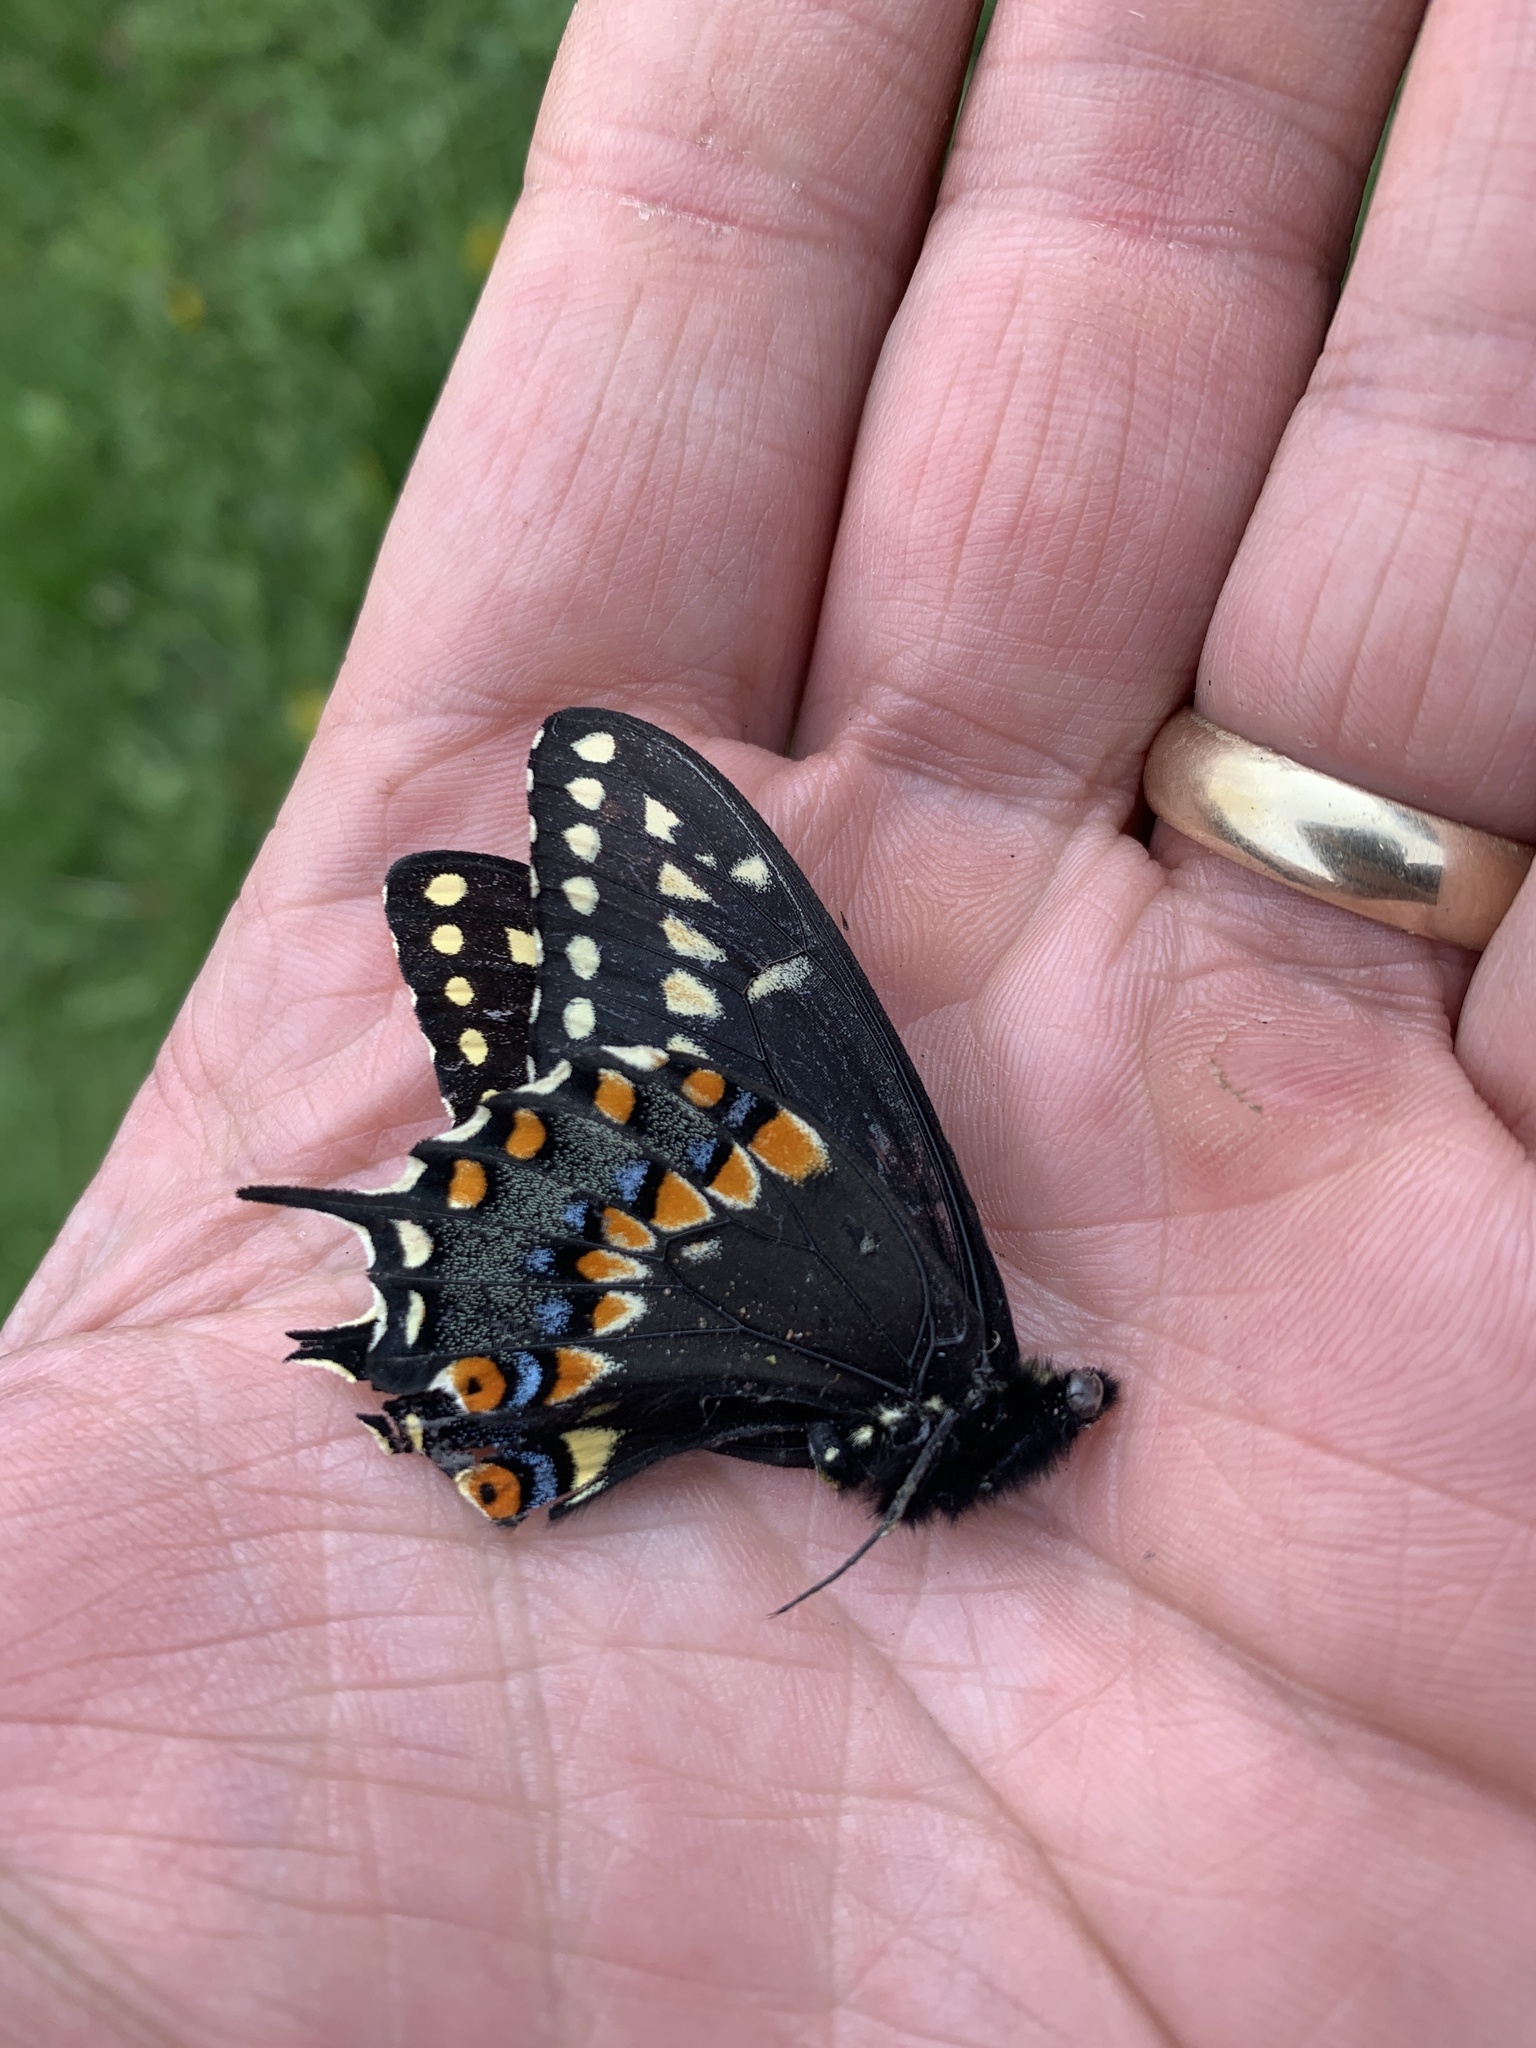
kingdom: Animalia
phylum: Arthropoda
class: Insecta
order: Lepidoptera
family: Papilionidae
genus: Papilio
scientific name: Papilio polyxenes
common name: Black swallowtail
